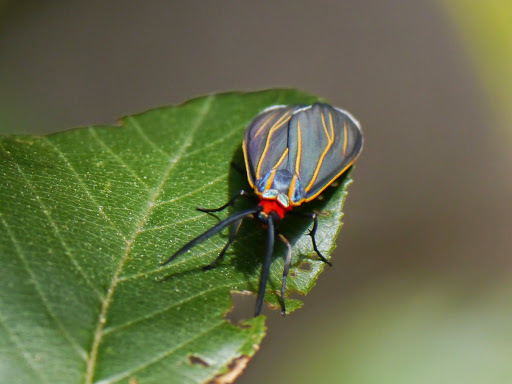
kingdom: Animalia
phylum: Arthropoda
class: Insecta
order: Lepidoptera
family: Erebidae
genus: Ctenucha
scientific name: Ctenucha venosa
